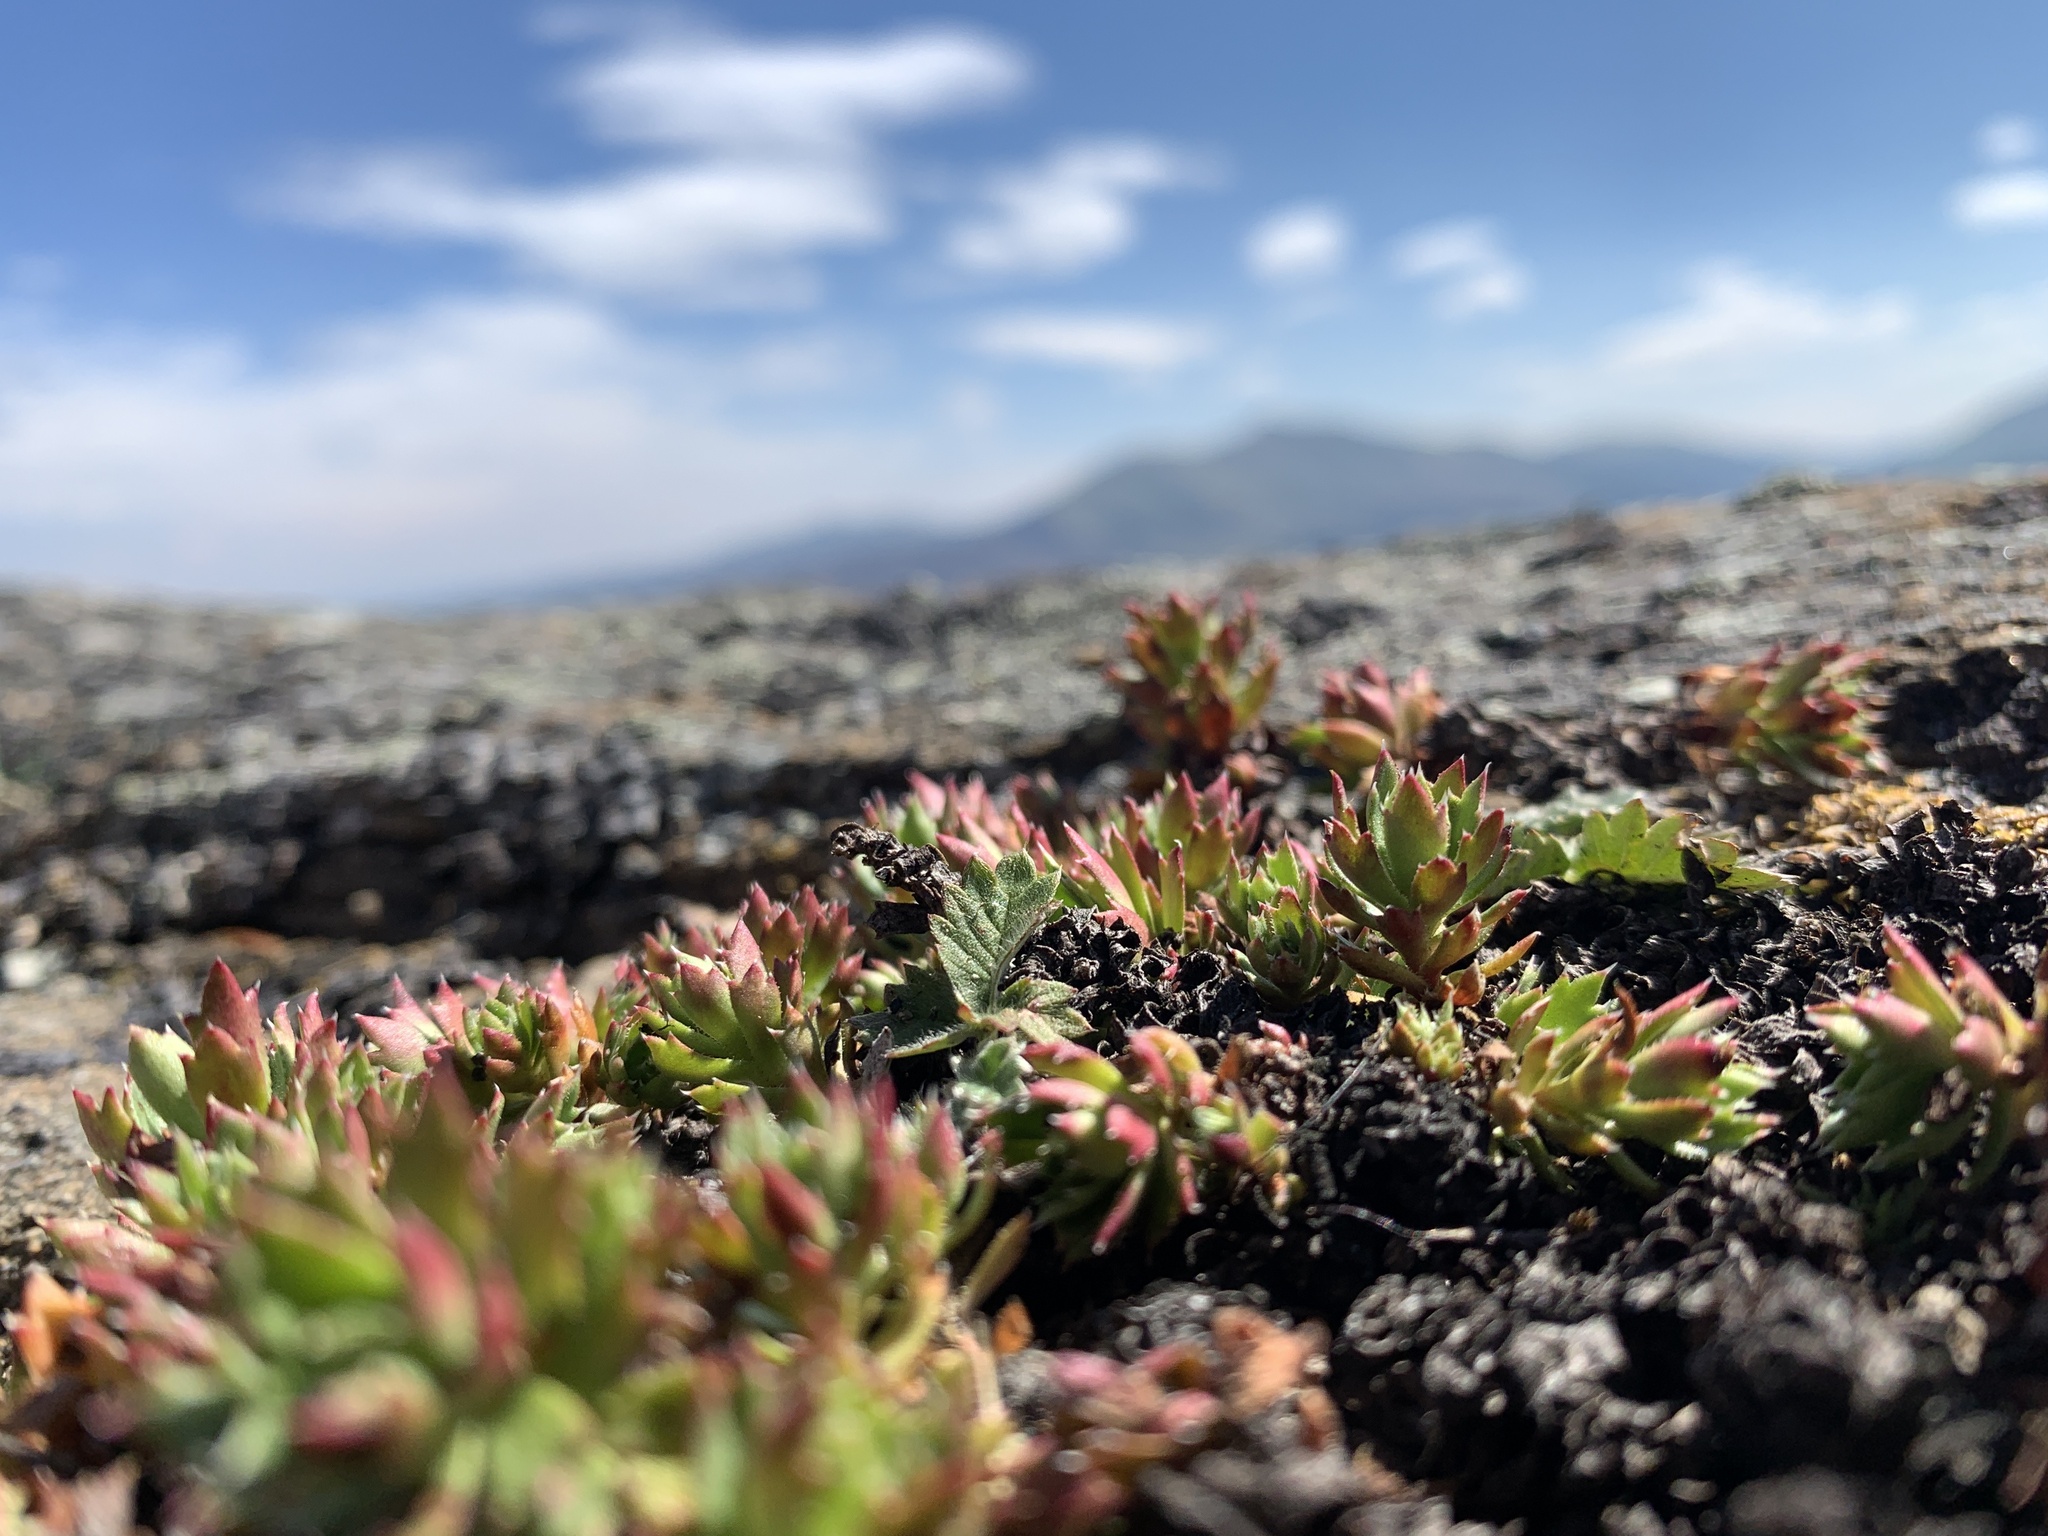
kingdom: Plantae
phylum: Tracheophyta
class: Magnoliopsida
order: Saxifragales
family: Saxifragaceae
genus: Saxifraga
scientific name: Saxifraga tricuspidata
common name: Prickly saxifrage
